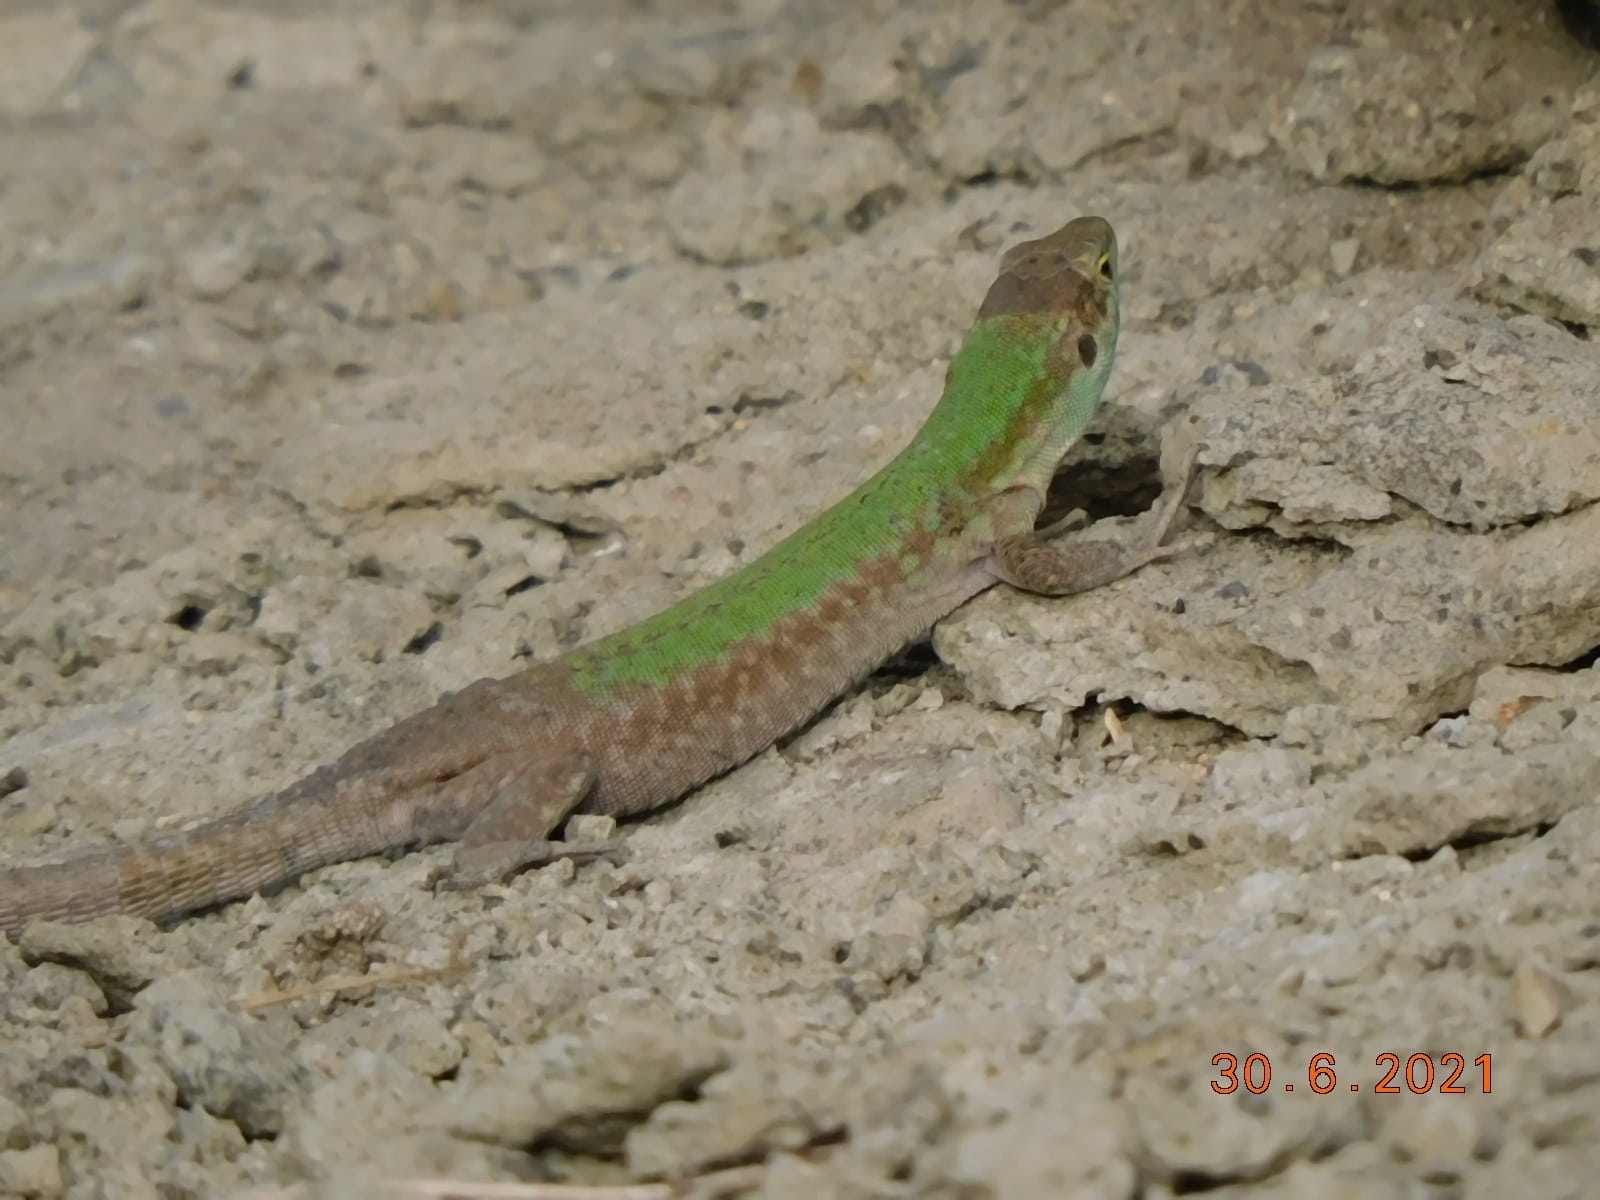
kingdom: Animalia
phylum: Chordata
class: Squamata
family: Lacertidae
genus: Podarcis
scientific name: Podarcis siculus
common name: Italian wall lizard
